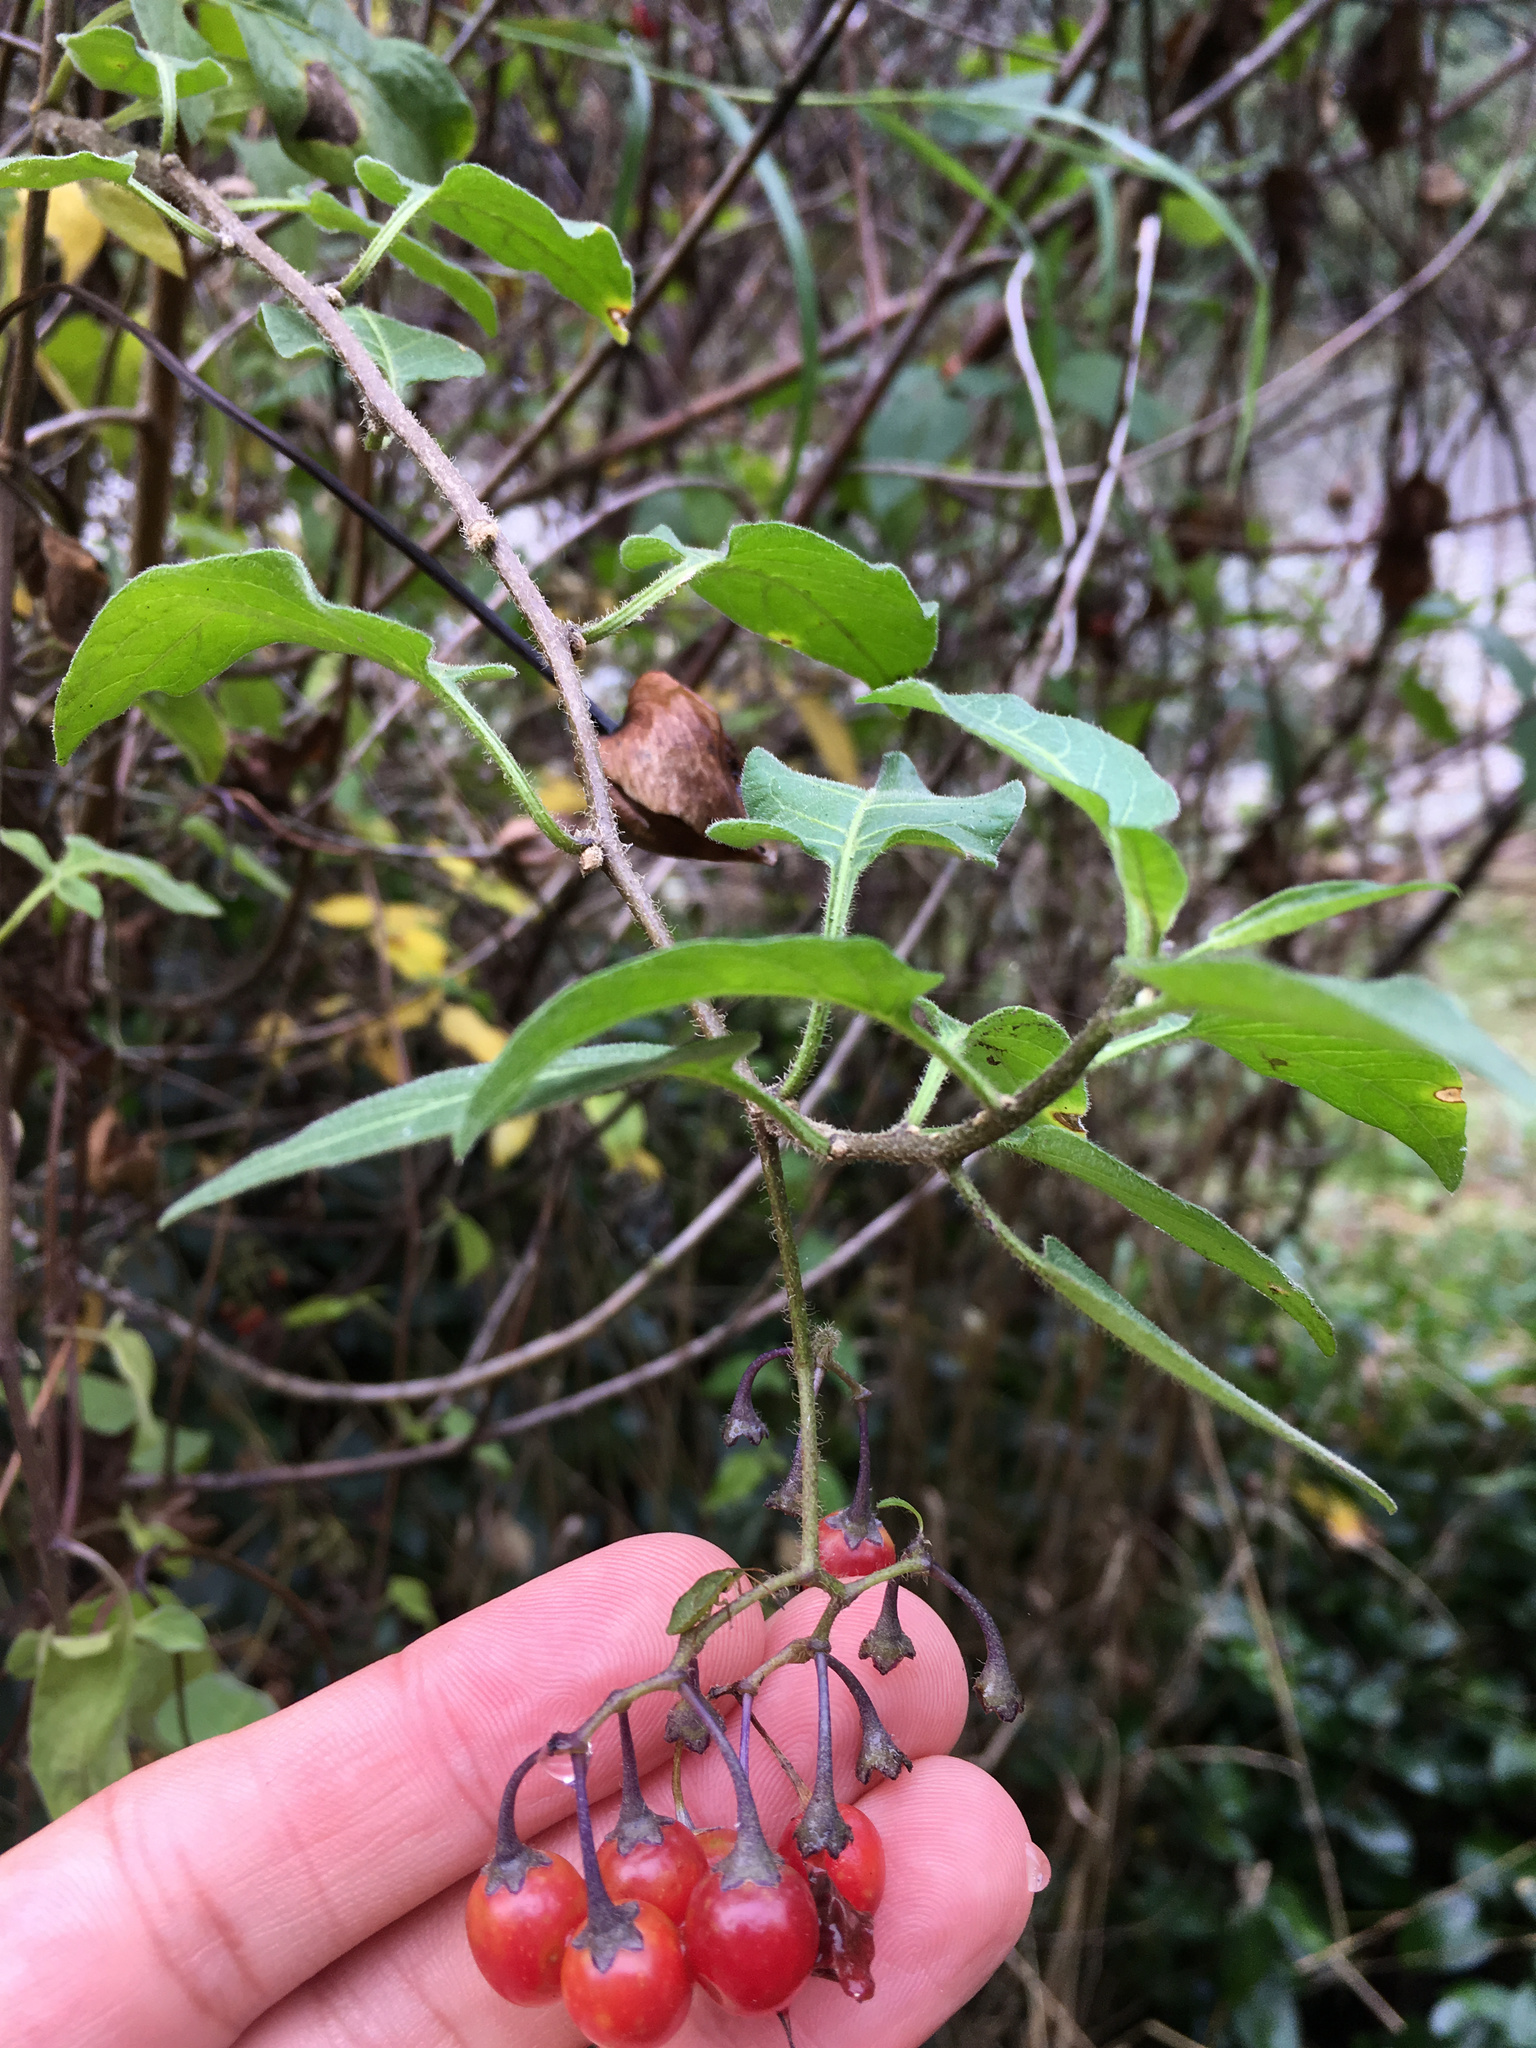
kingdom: Plantae
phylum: Tracheophyta
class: Magnoliopsida
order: Solanales
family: Solanaceae
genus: Solanum
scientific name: Solanum dulcamara
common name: Climbing nightshade
